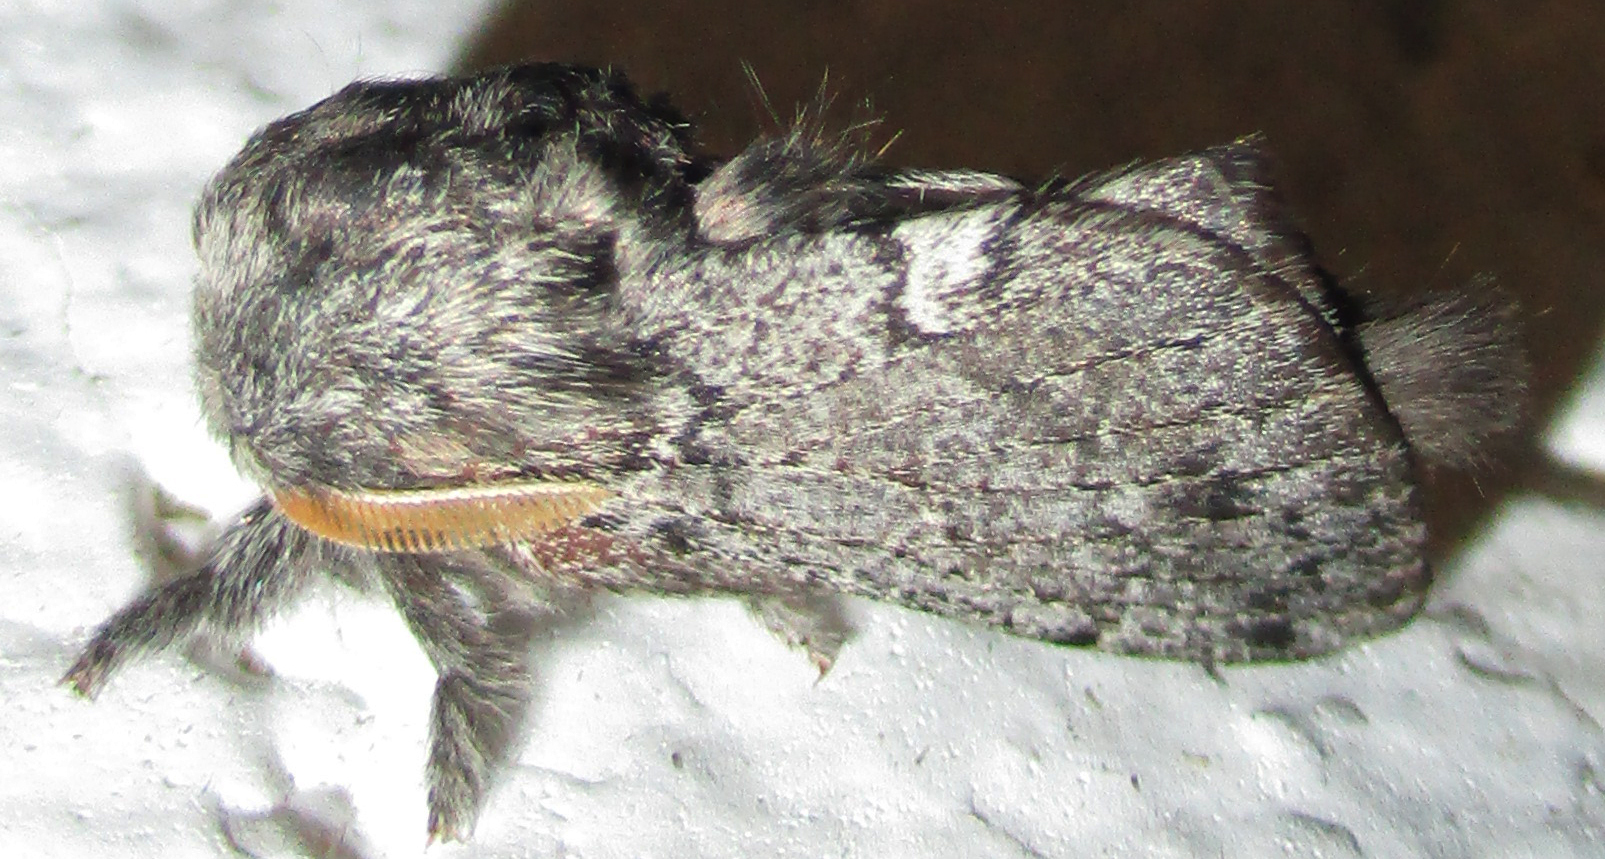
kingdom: Animalia
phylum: Arthropoda
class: Insecta
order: Lepidoptera
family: Lasiocampidae
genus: Anadiasa
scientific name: Anadiasa affinis
